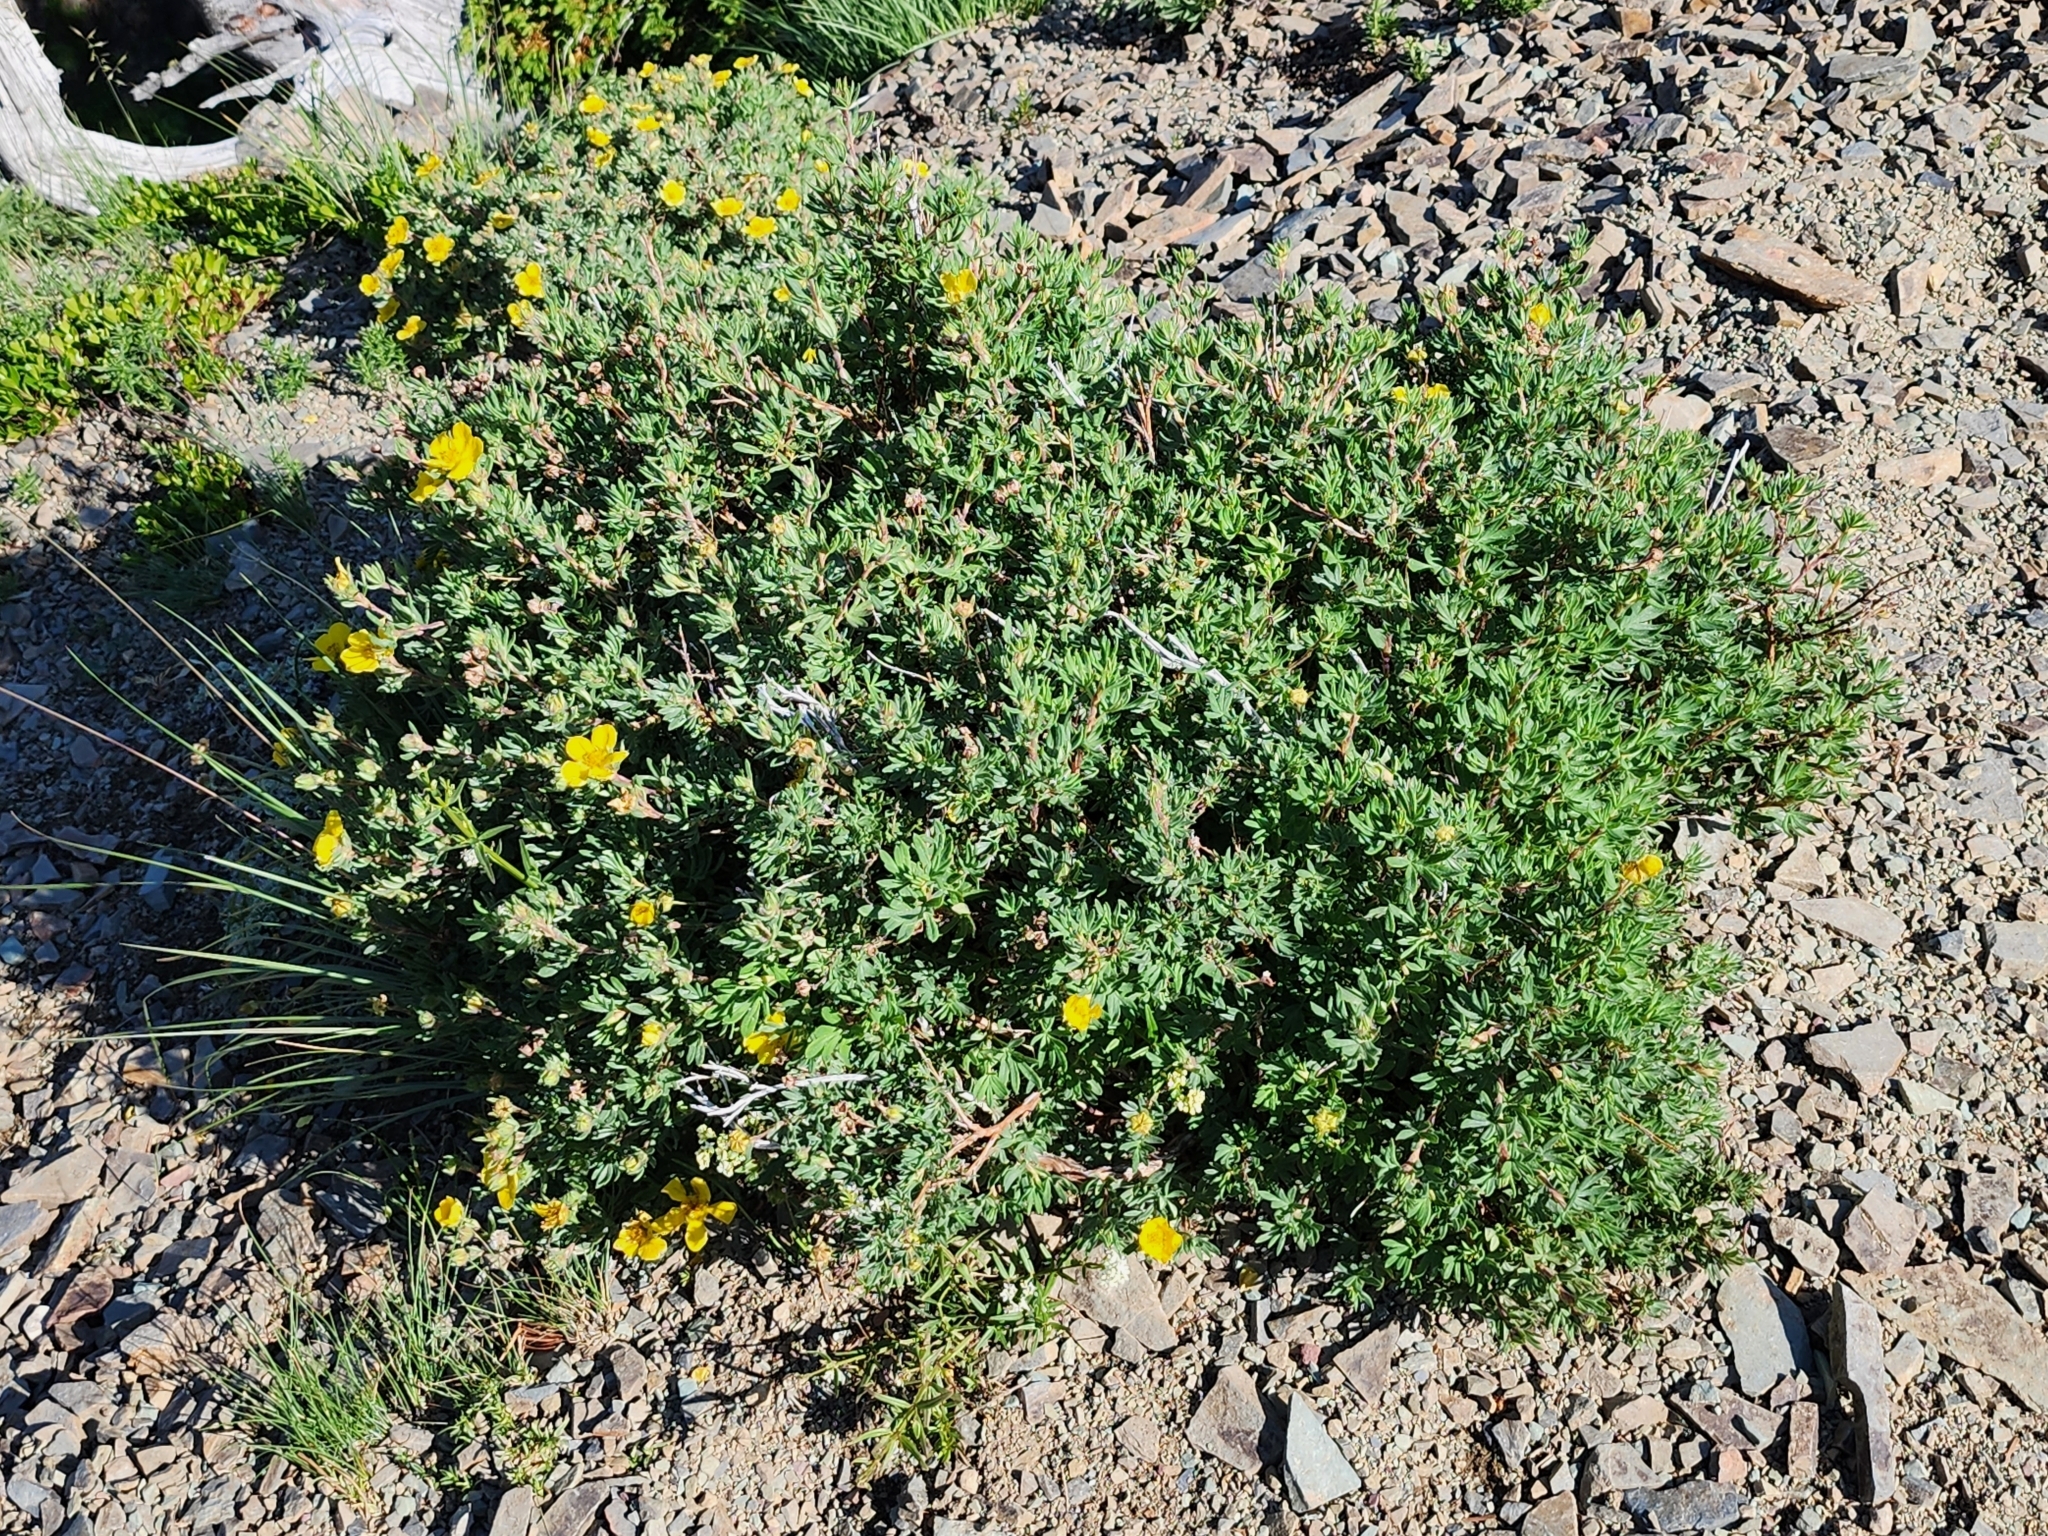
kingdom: Plantae
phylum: Tracheophyta
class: Magnoliopsida
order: Rosales
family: Rosaceae
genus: Dasiphora
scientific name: Dasiphora fruticosa
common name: Shrubby cinquefoil
